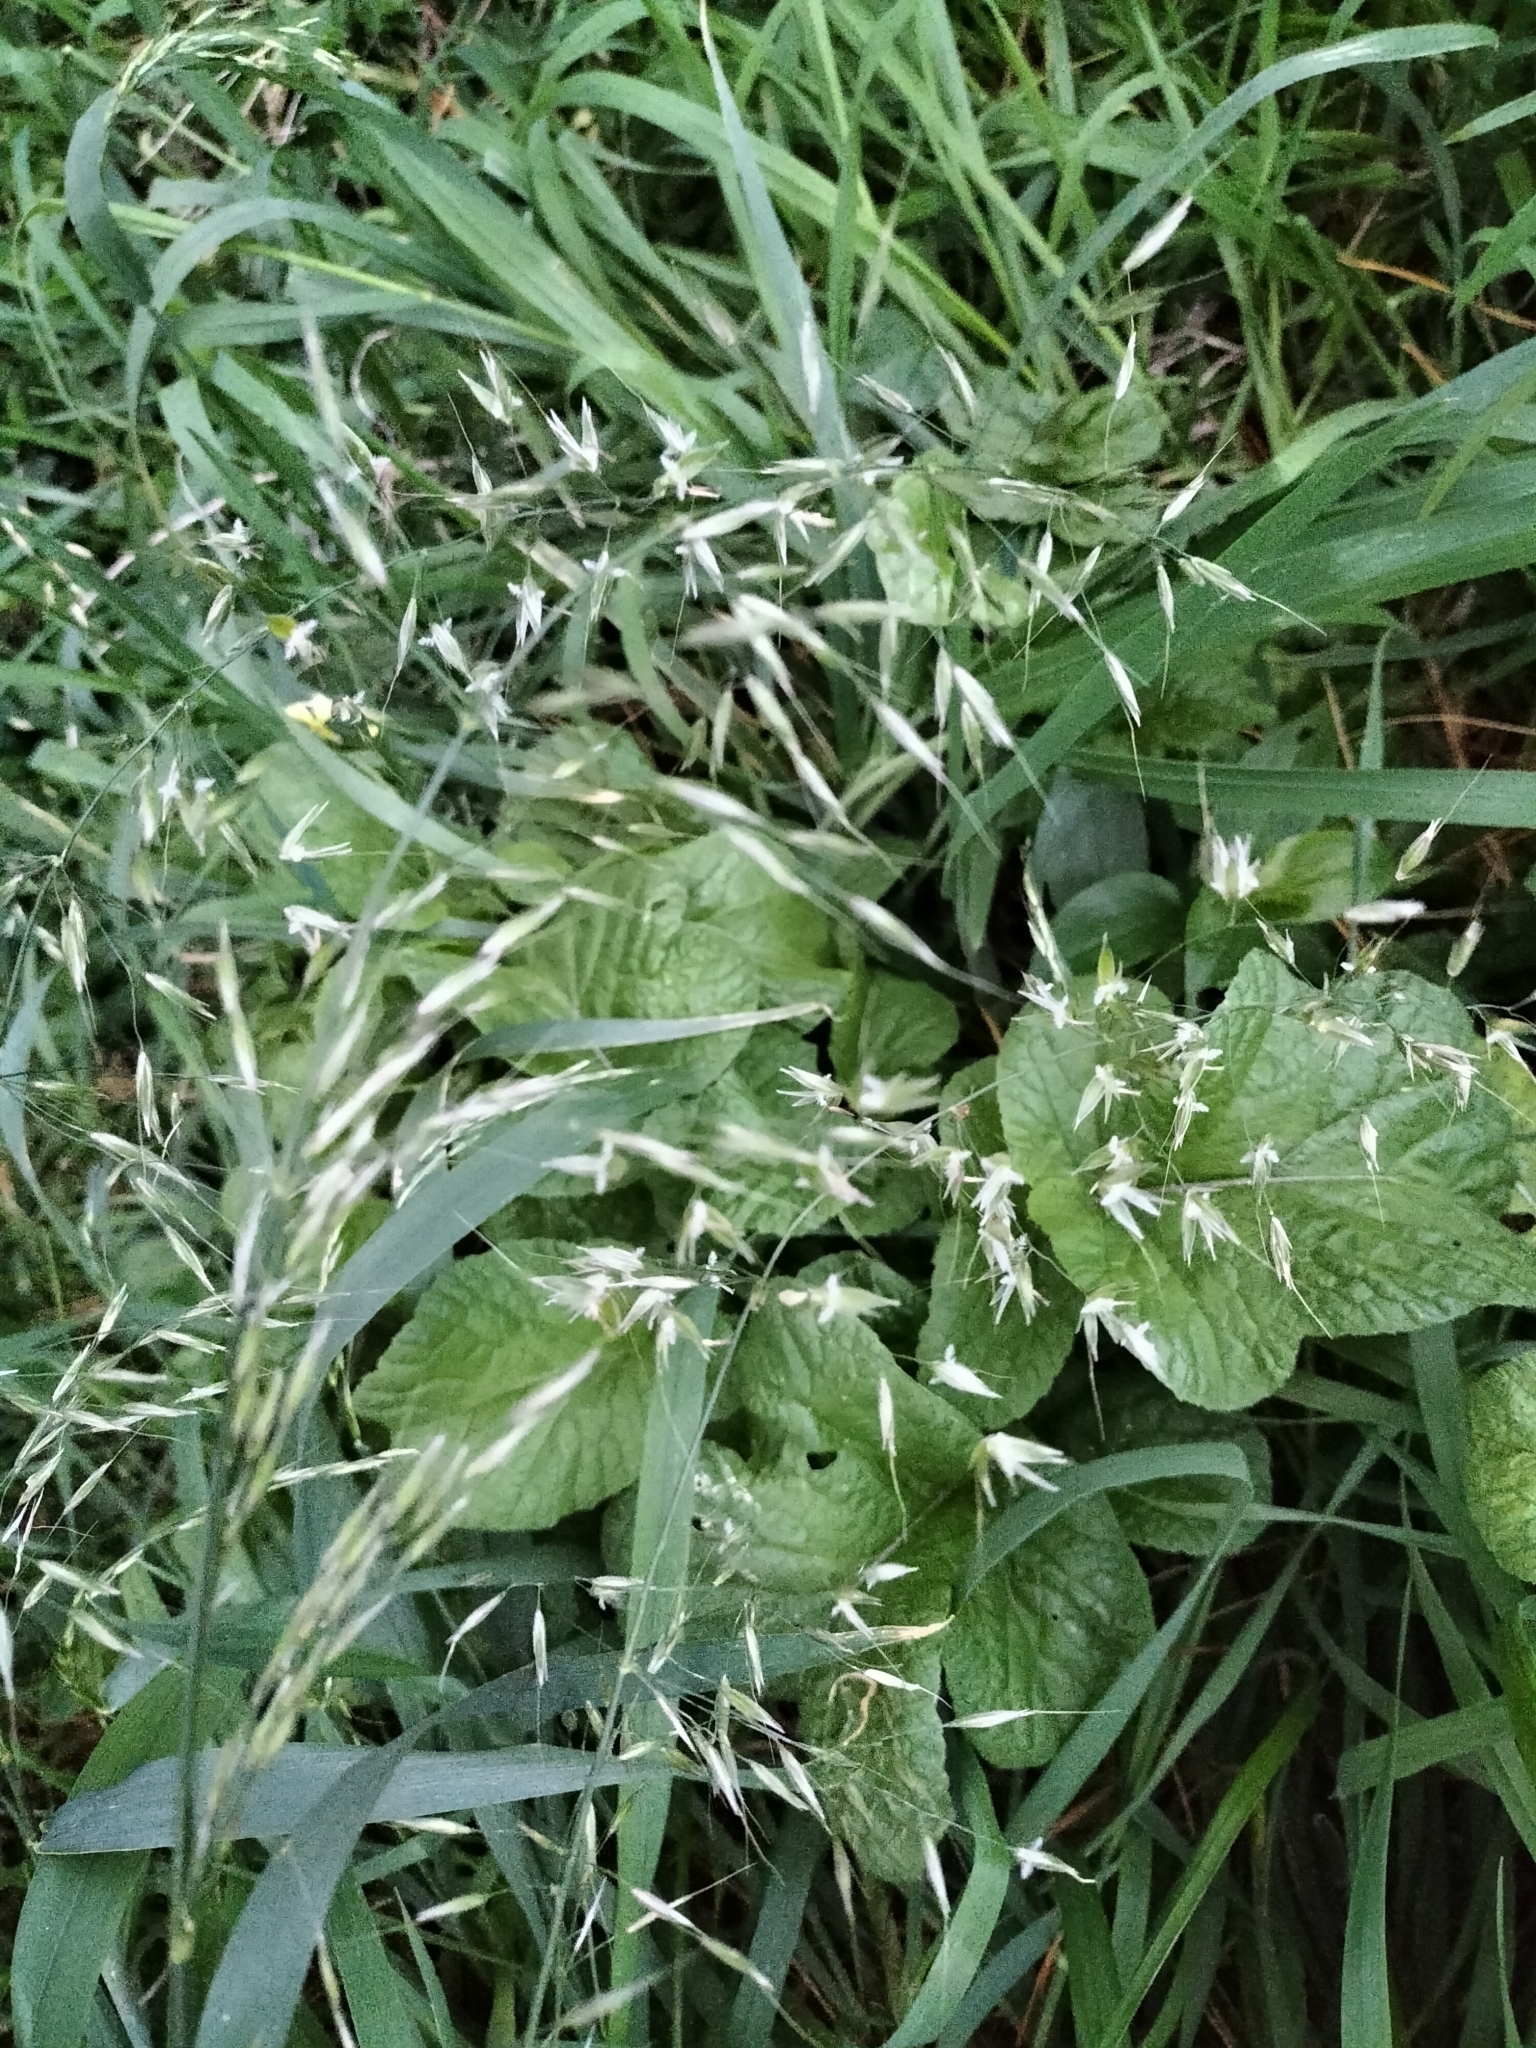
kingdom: Plantae
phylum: Tracheophyta
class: Liliopsida
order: Poales
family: Poaceae
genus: Arrhenatherum
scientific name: Arrhenatherum elatius
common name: Tall oatgrass
